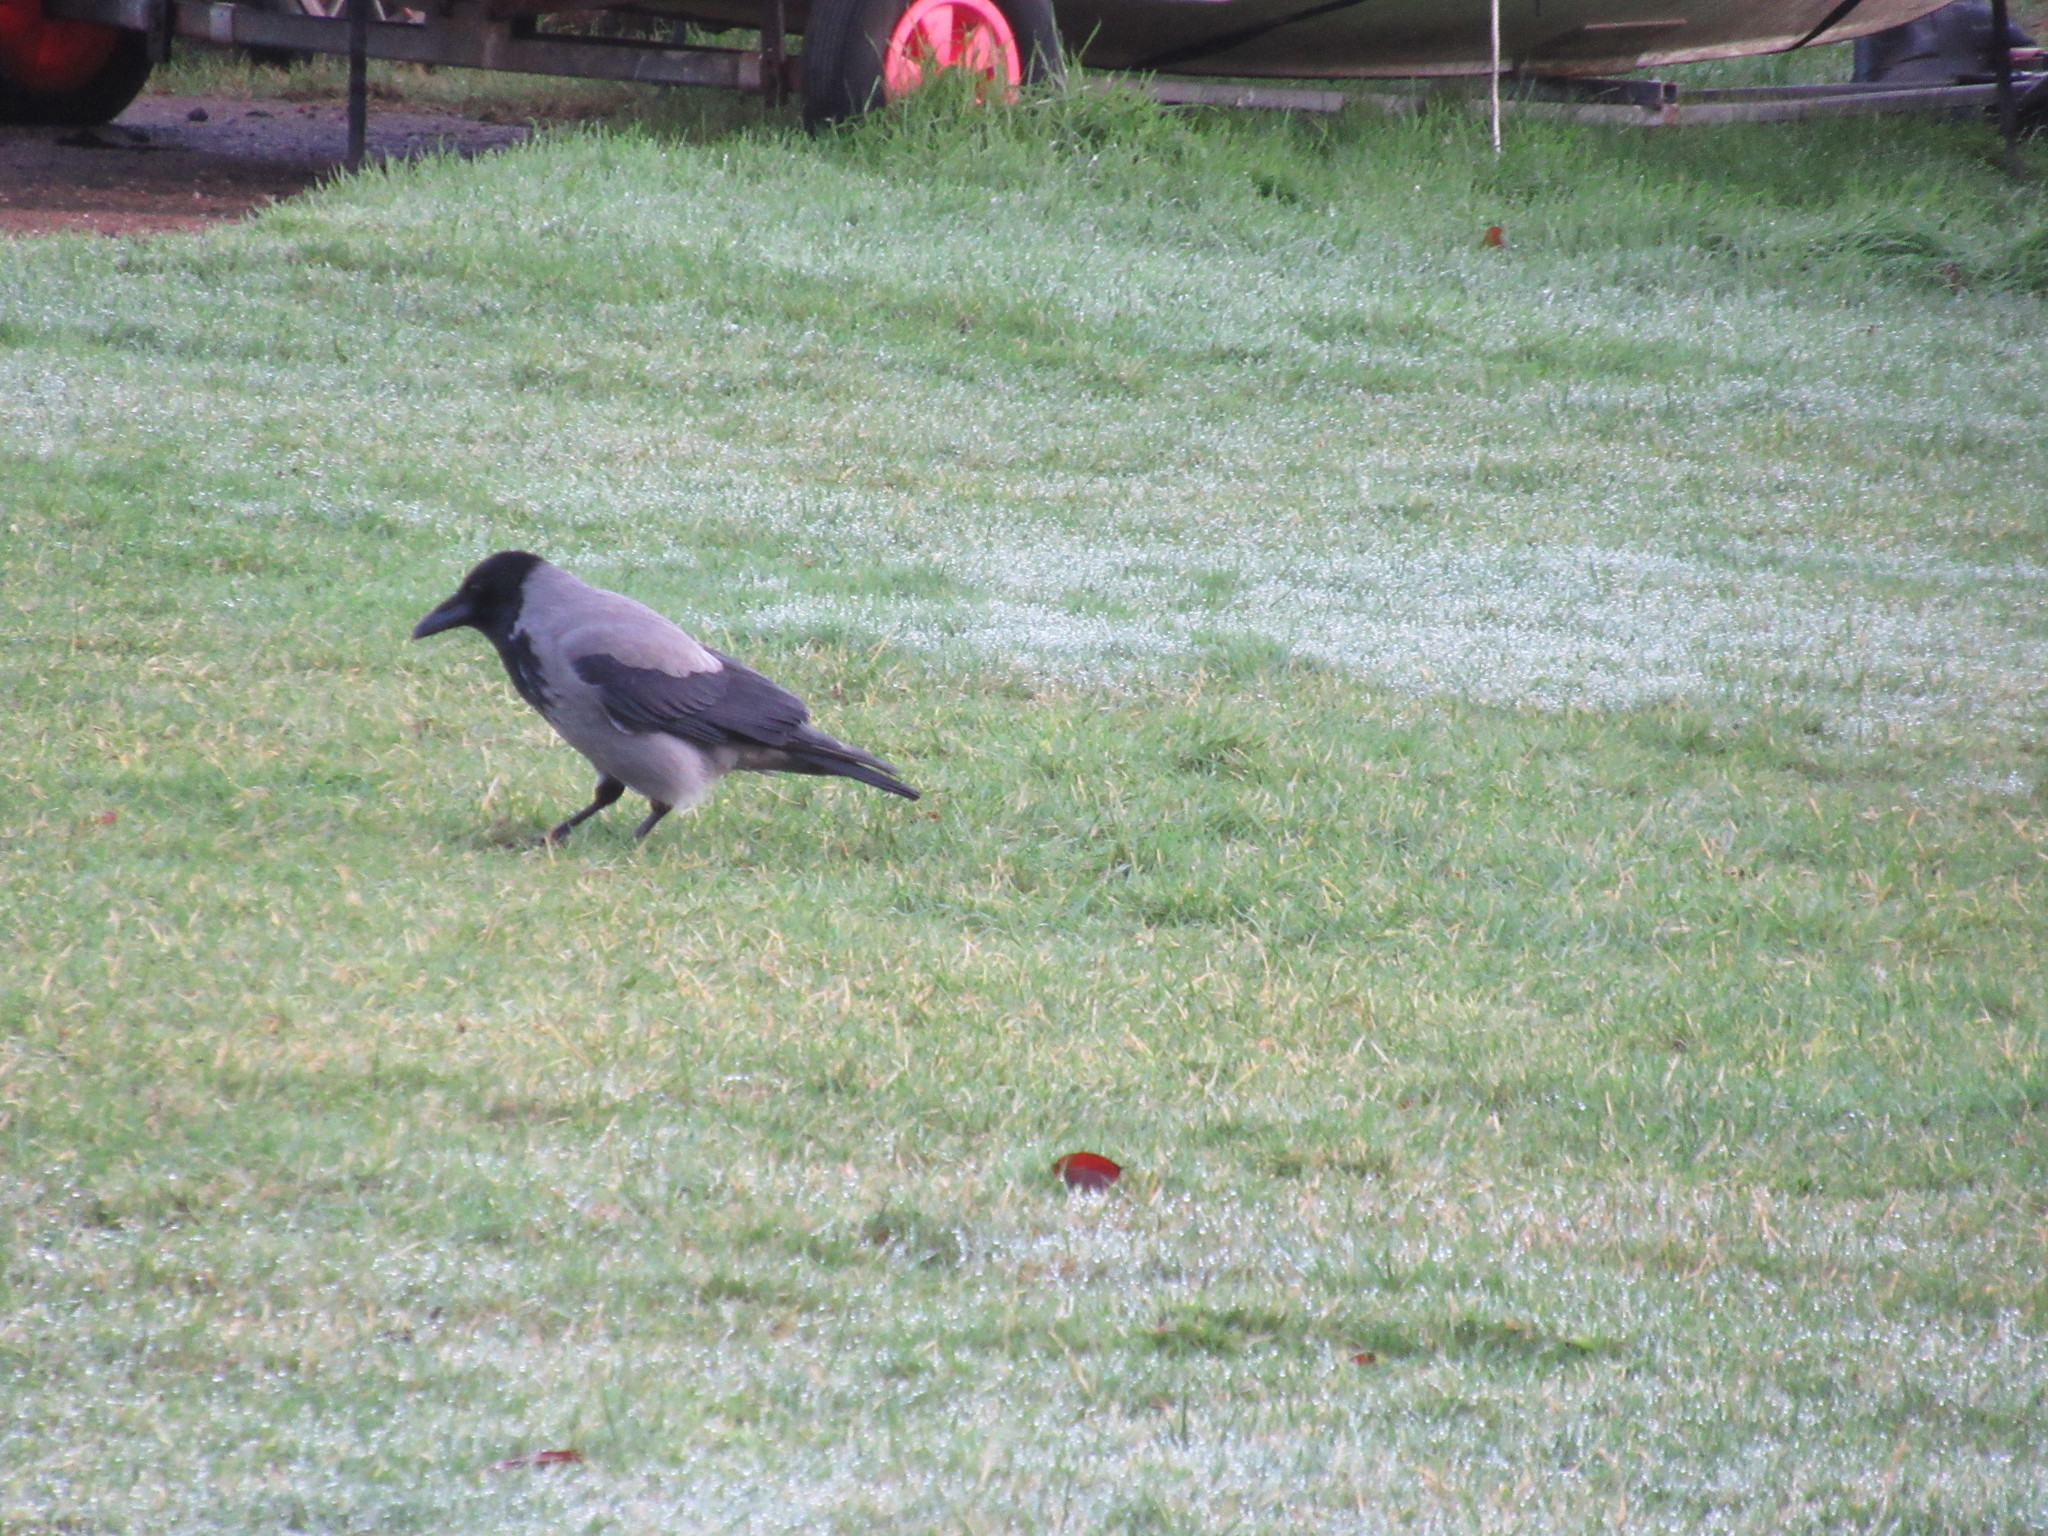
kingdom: Animalia
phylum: Chordata
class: Aves
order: Passeriformes
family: Corvidae
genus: Corvus
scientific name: Corvus cornix
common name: Hooded crow
